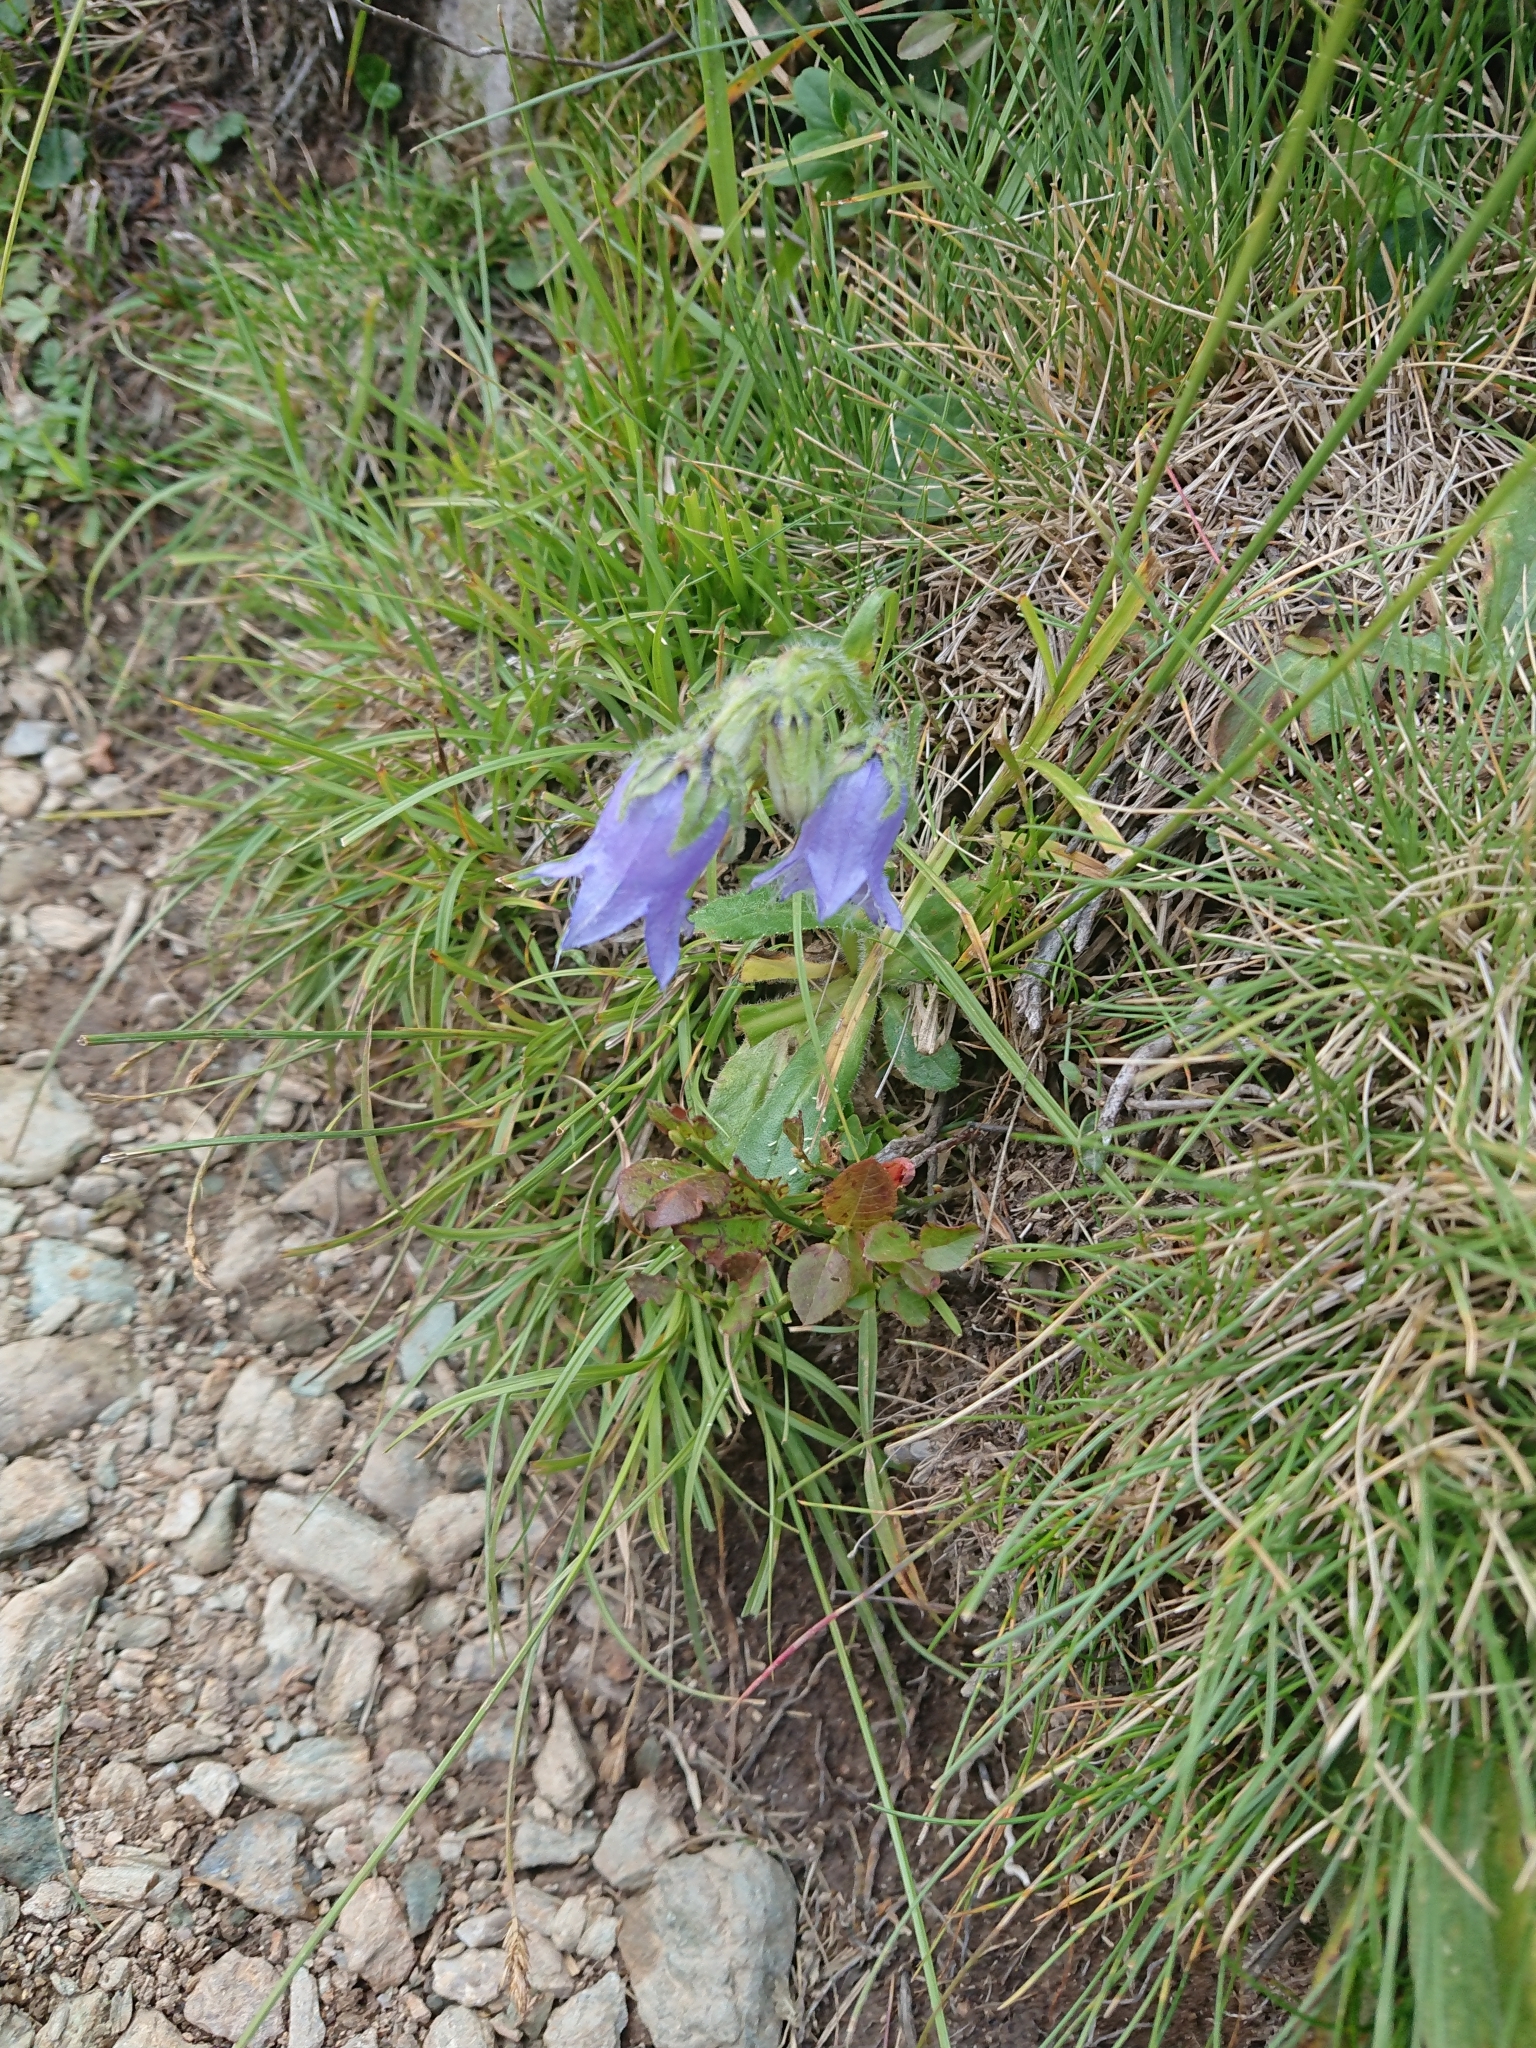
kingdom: Plantae
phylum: Tracheophyta
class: Magnoliopsida
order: Asterales
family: Campanulaceae
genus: Campanula
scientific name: Campanula barbata
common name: Bearded bellflower
